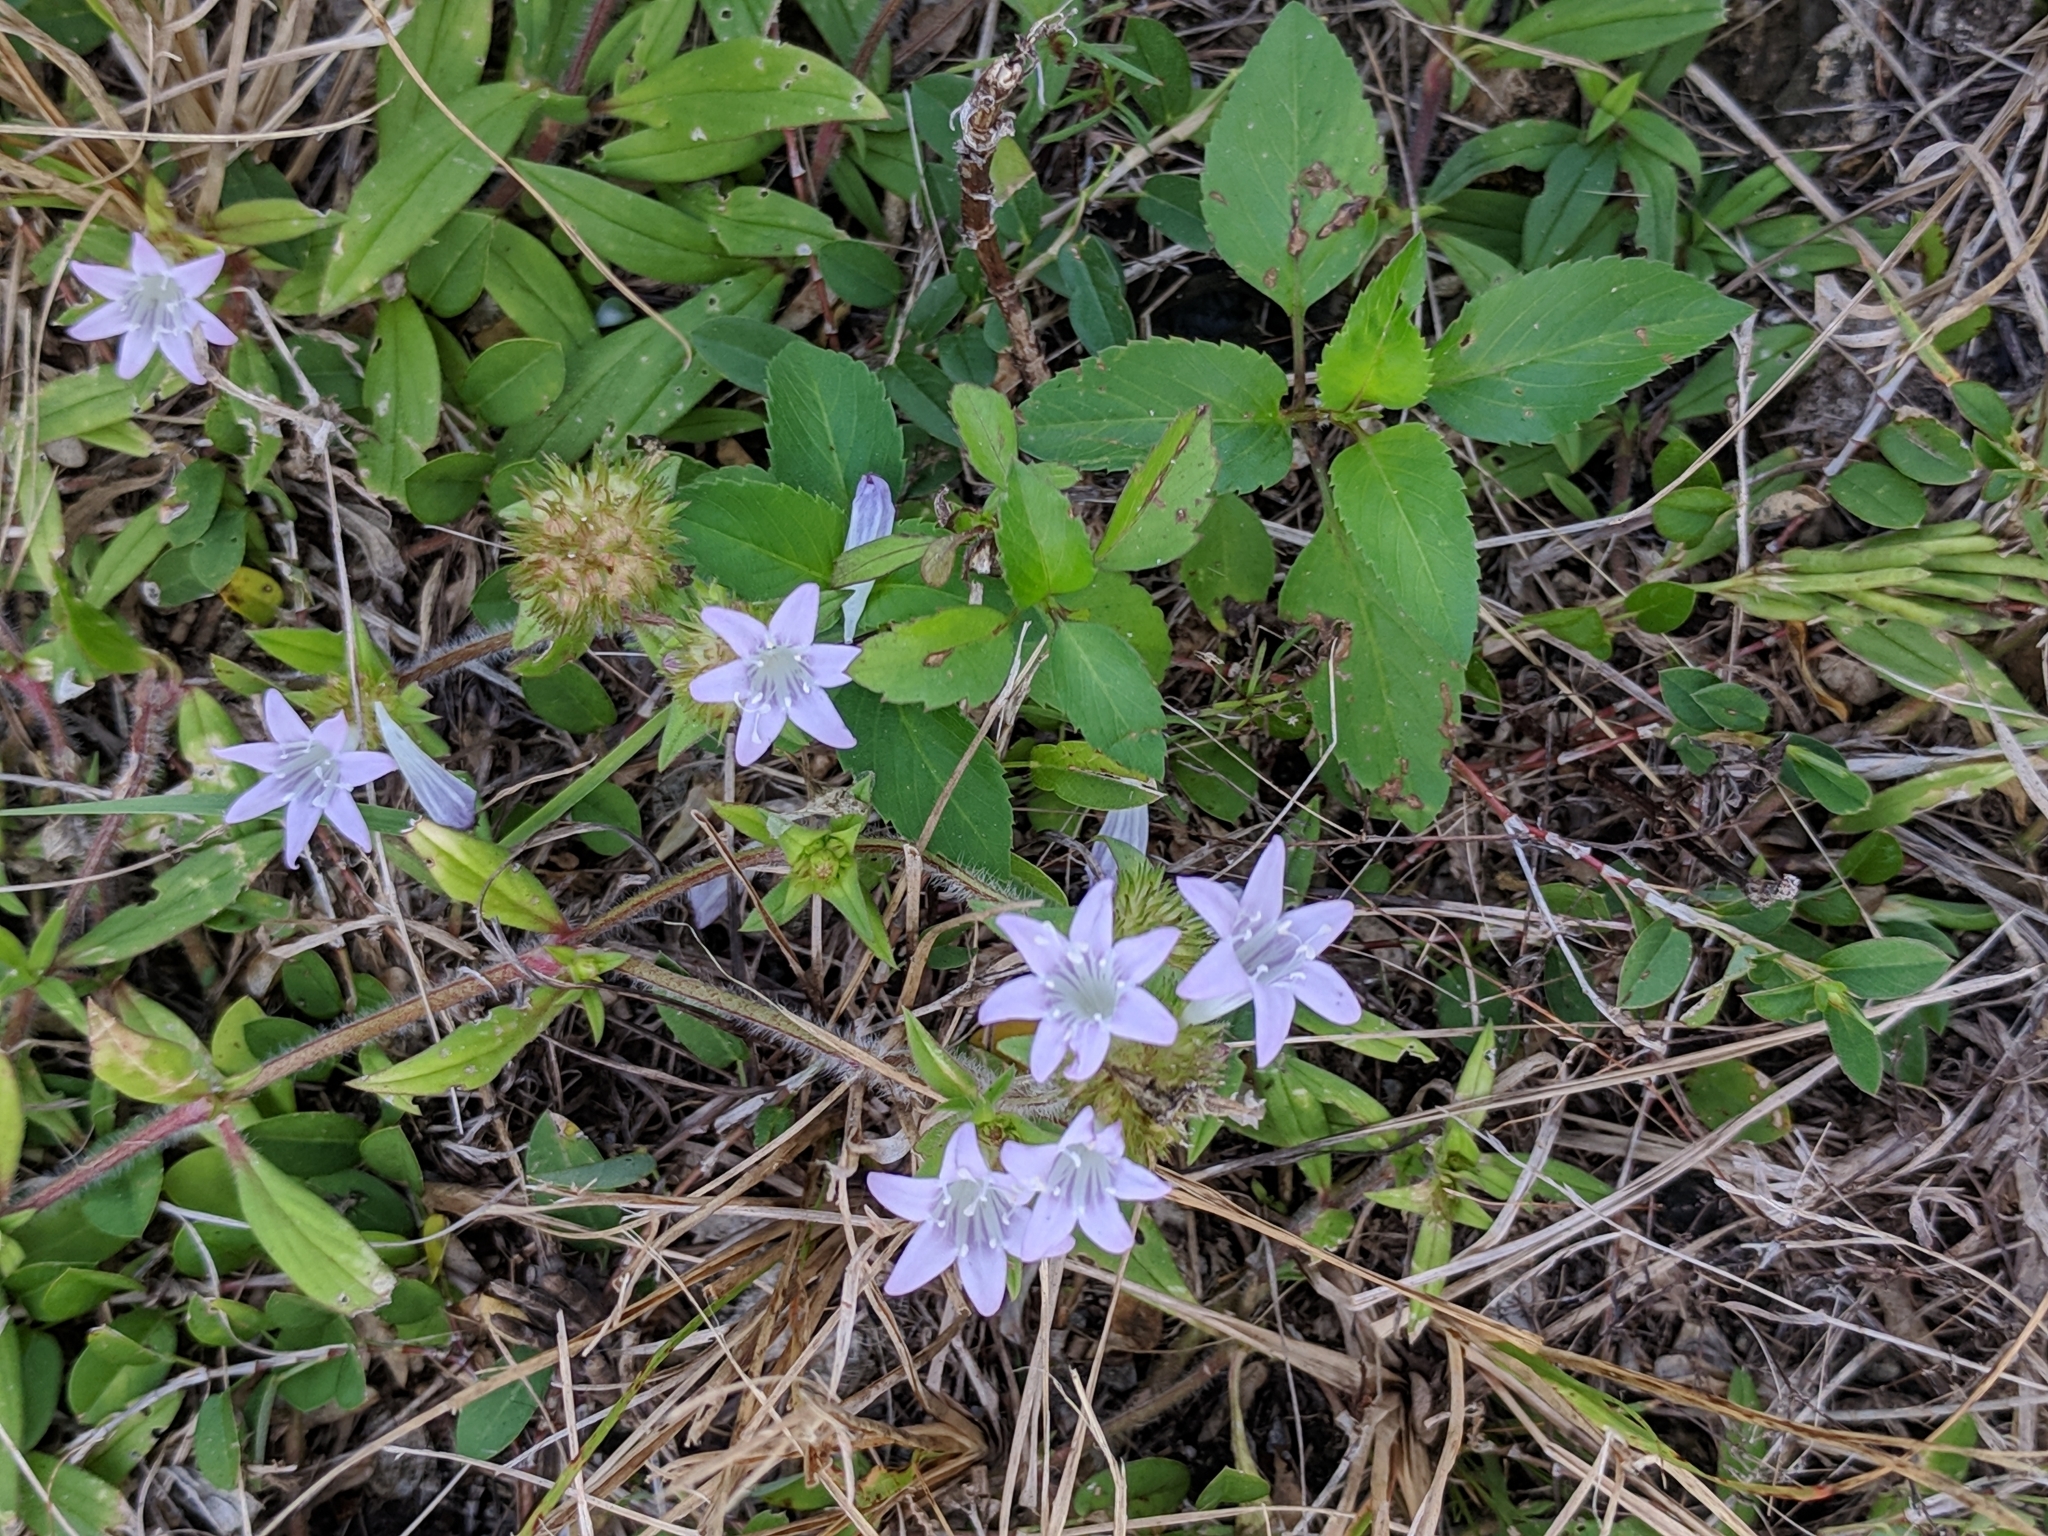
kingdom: Plantae
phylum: Tracheophyta
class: Magnoliopsida
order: Gentianales
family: Rubiaceae
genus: Richardia
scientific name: Richardia grandiflora
